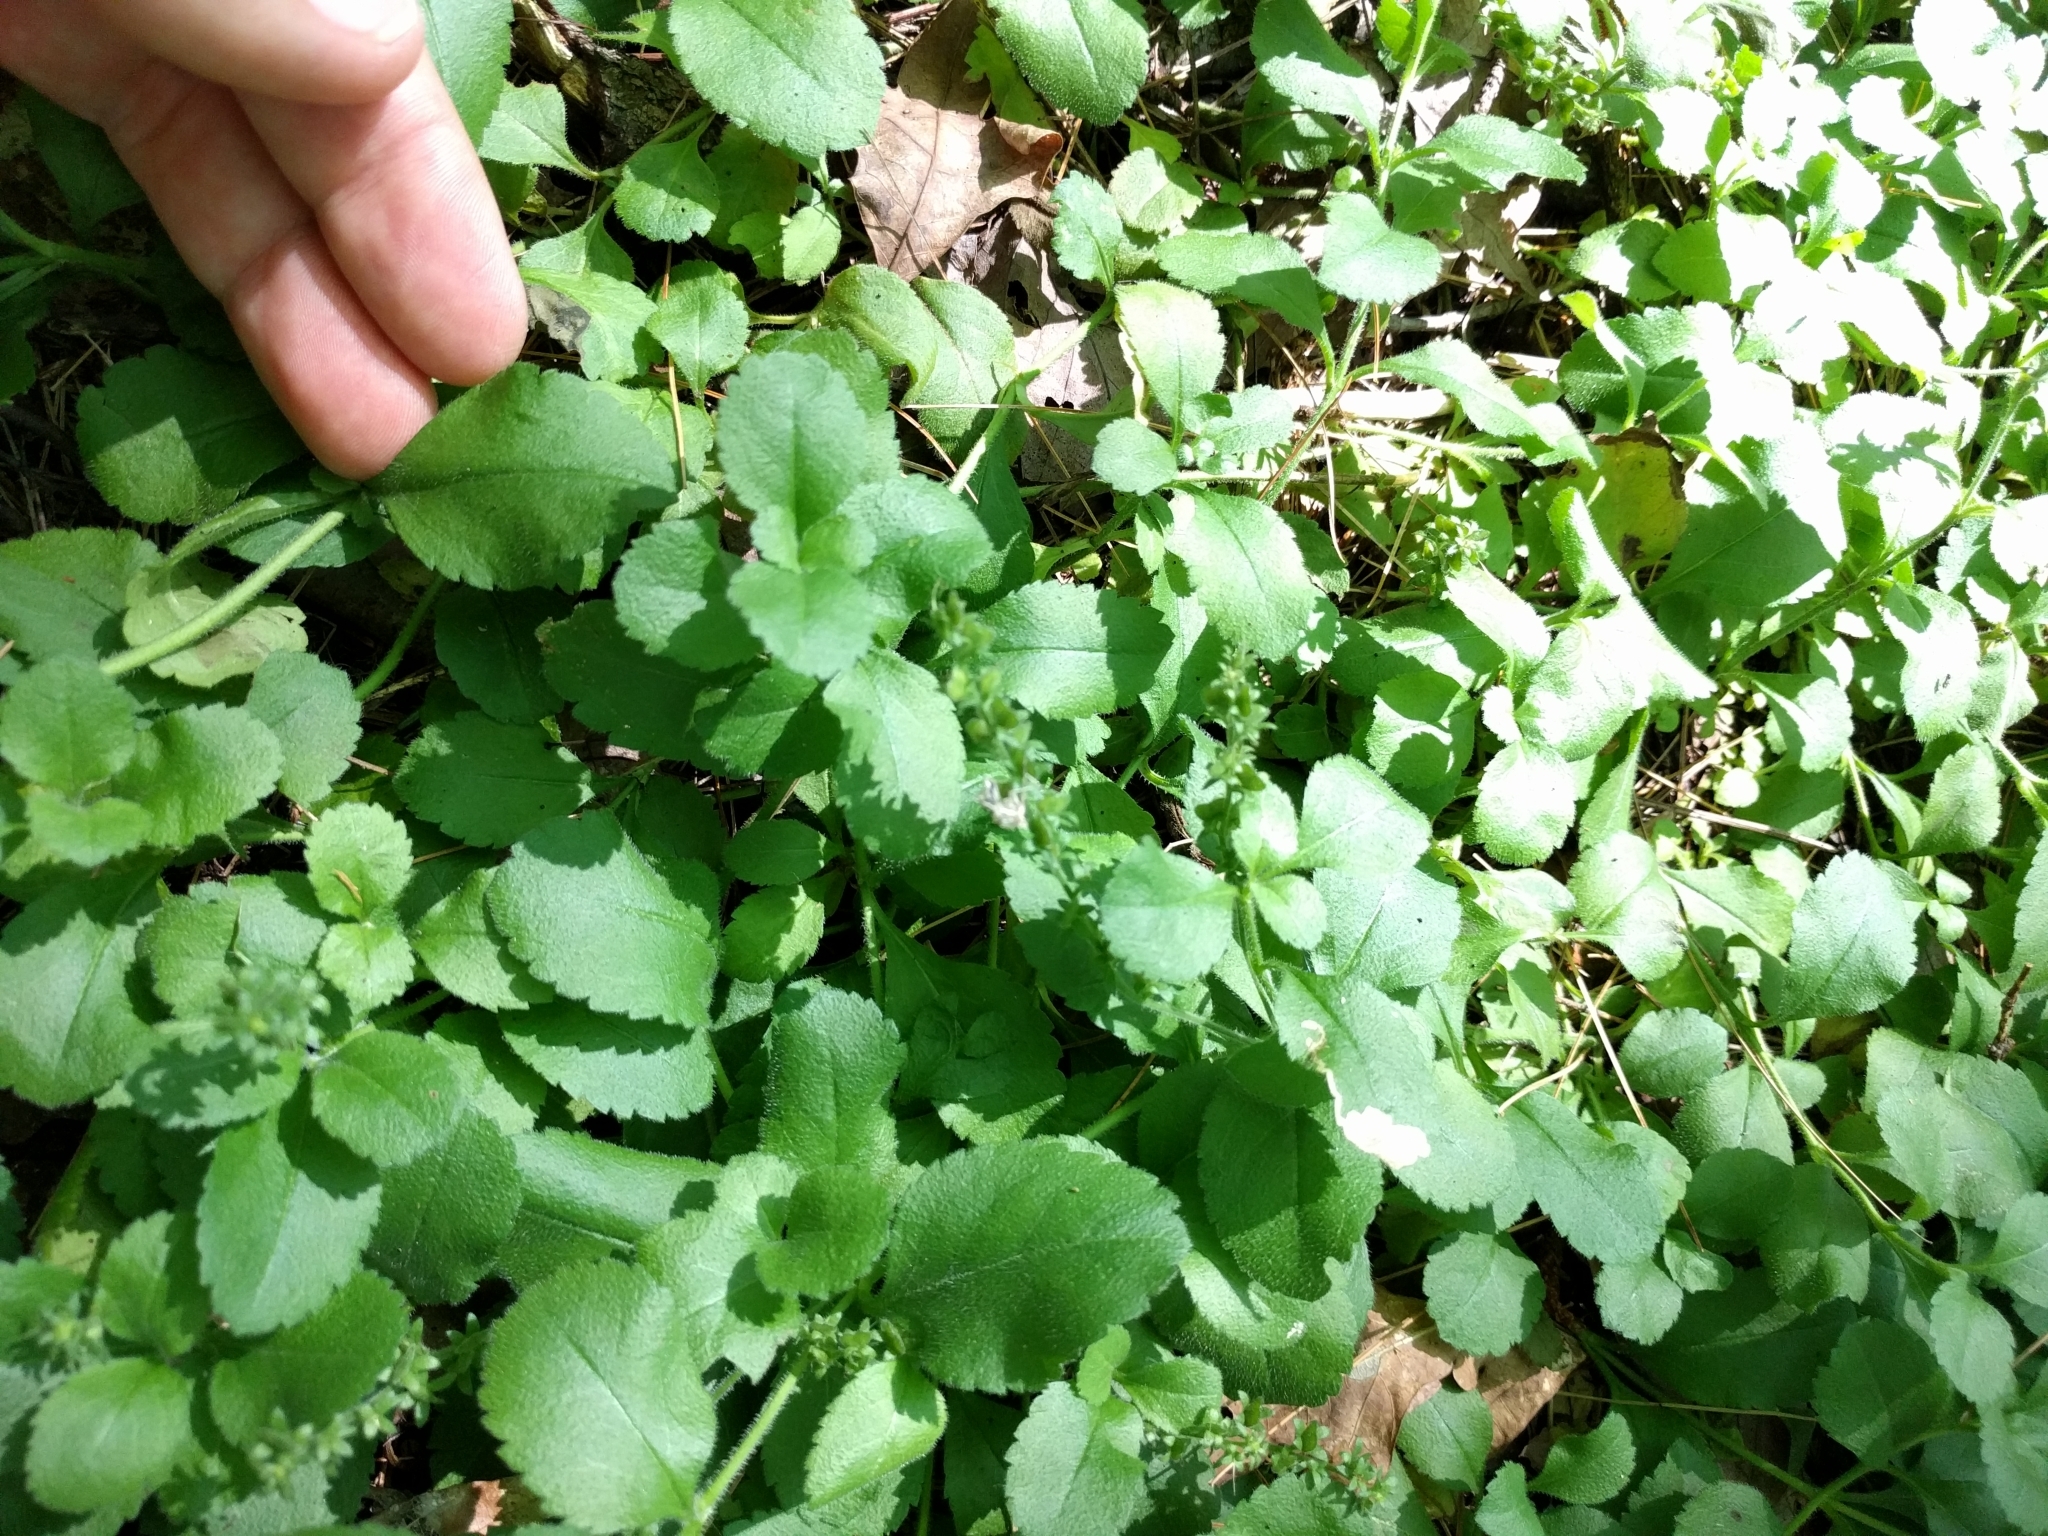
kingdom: Plantae
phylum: Tracheophyta
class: Magnoliopsida
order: Lamiales
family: Plantaginaceae
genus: Veronica
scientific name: Veronica officinalis
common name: Common speedwell
